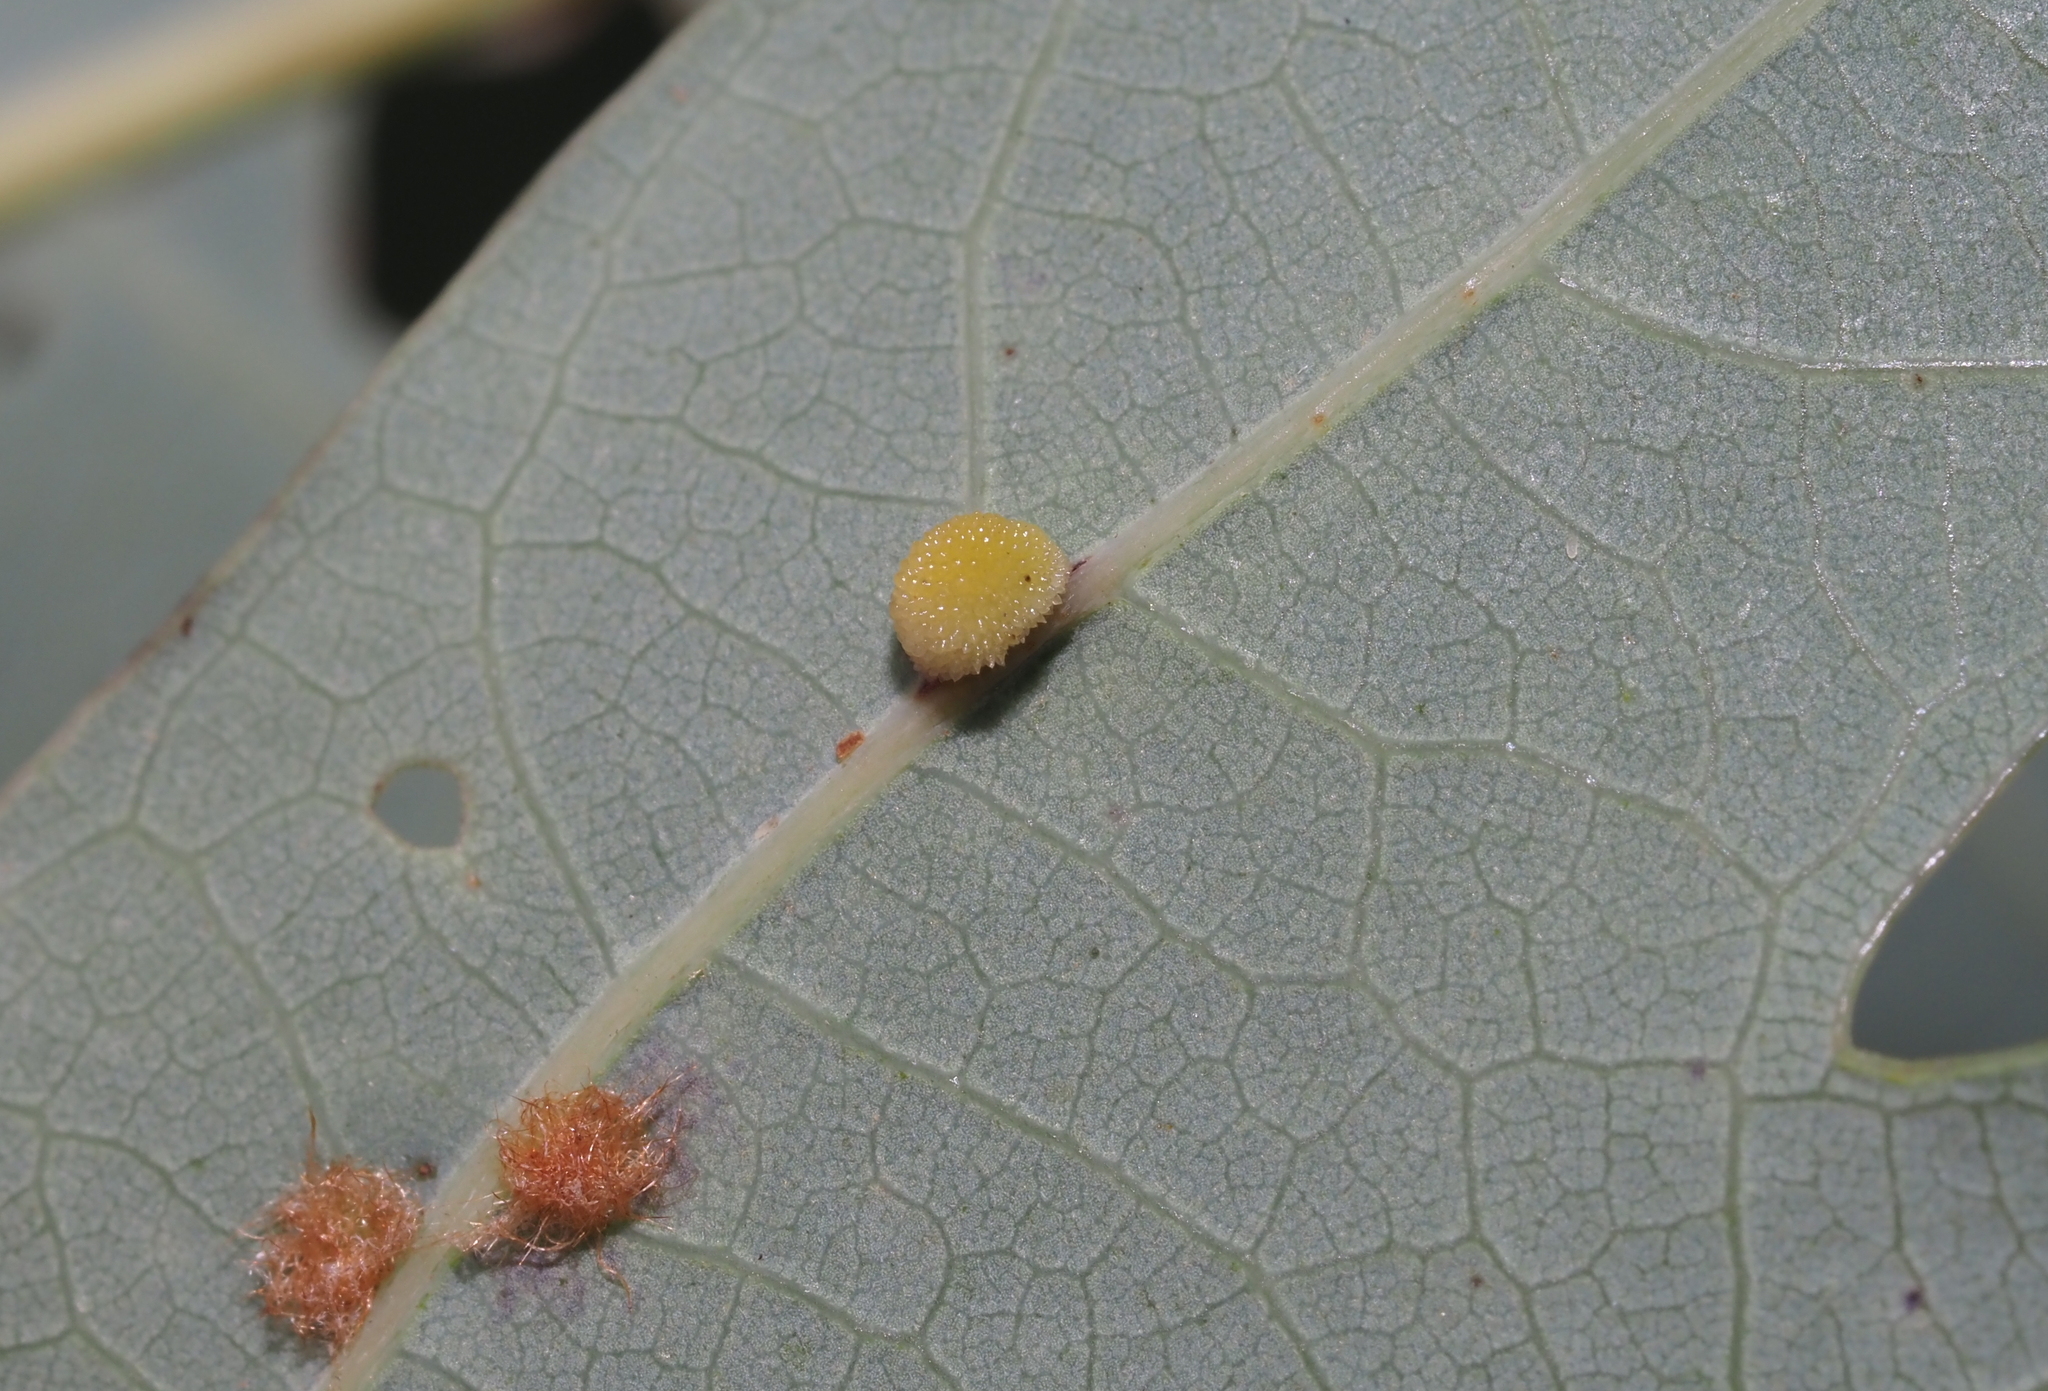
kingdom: Animalia
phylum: Arthropoda
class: Insecta
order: Hymenoptera
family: Cynipidae
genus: Acraspis
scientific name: Acraspis
